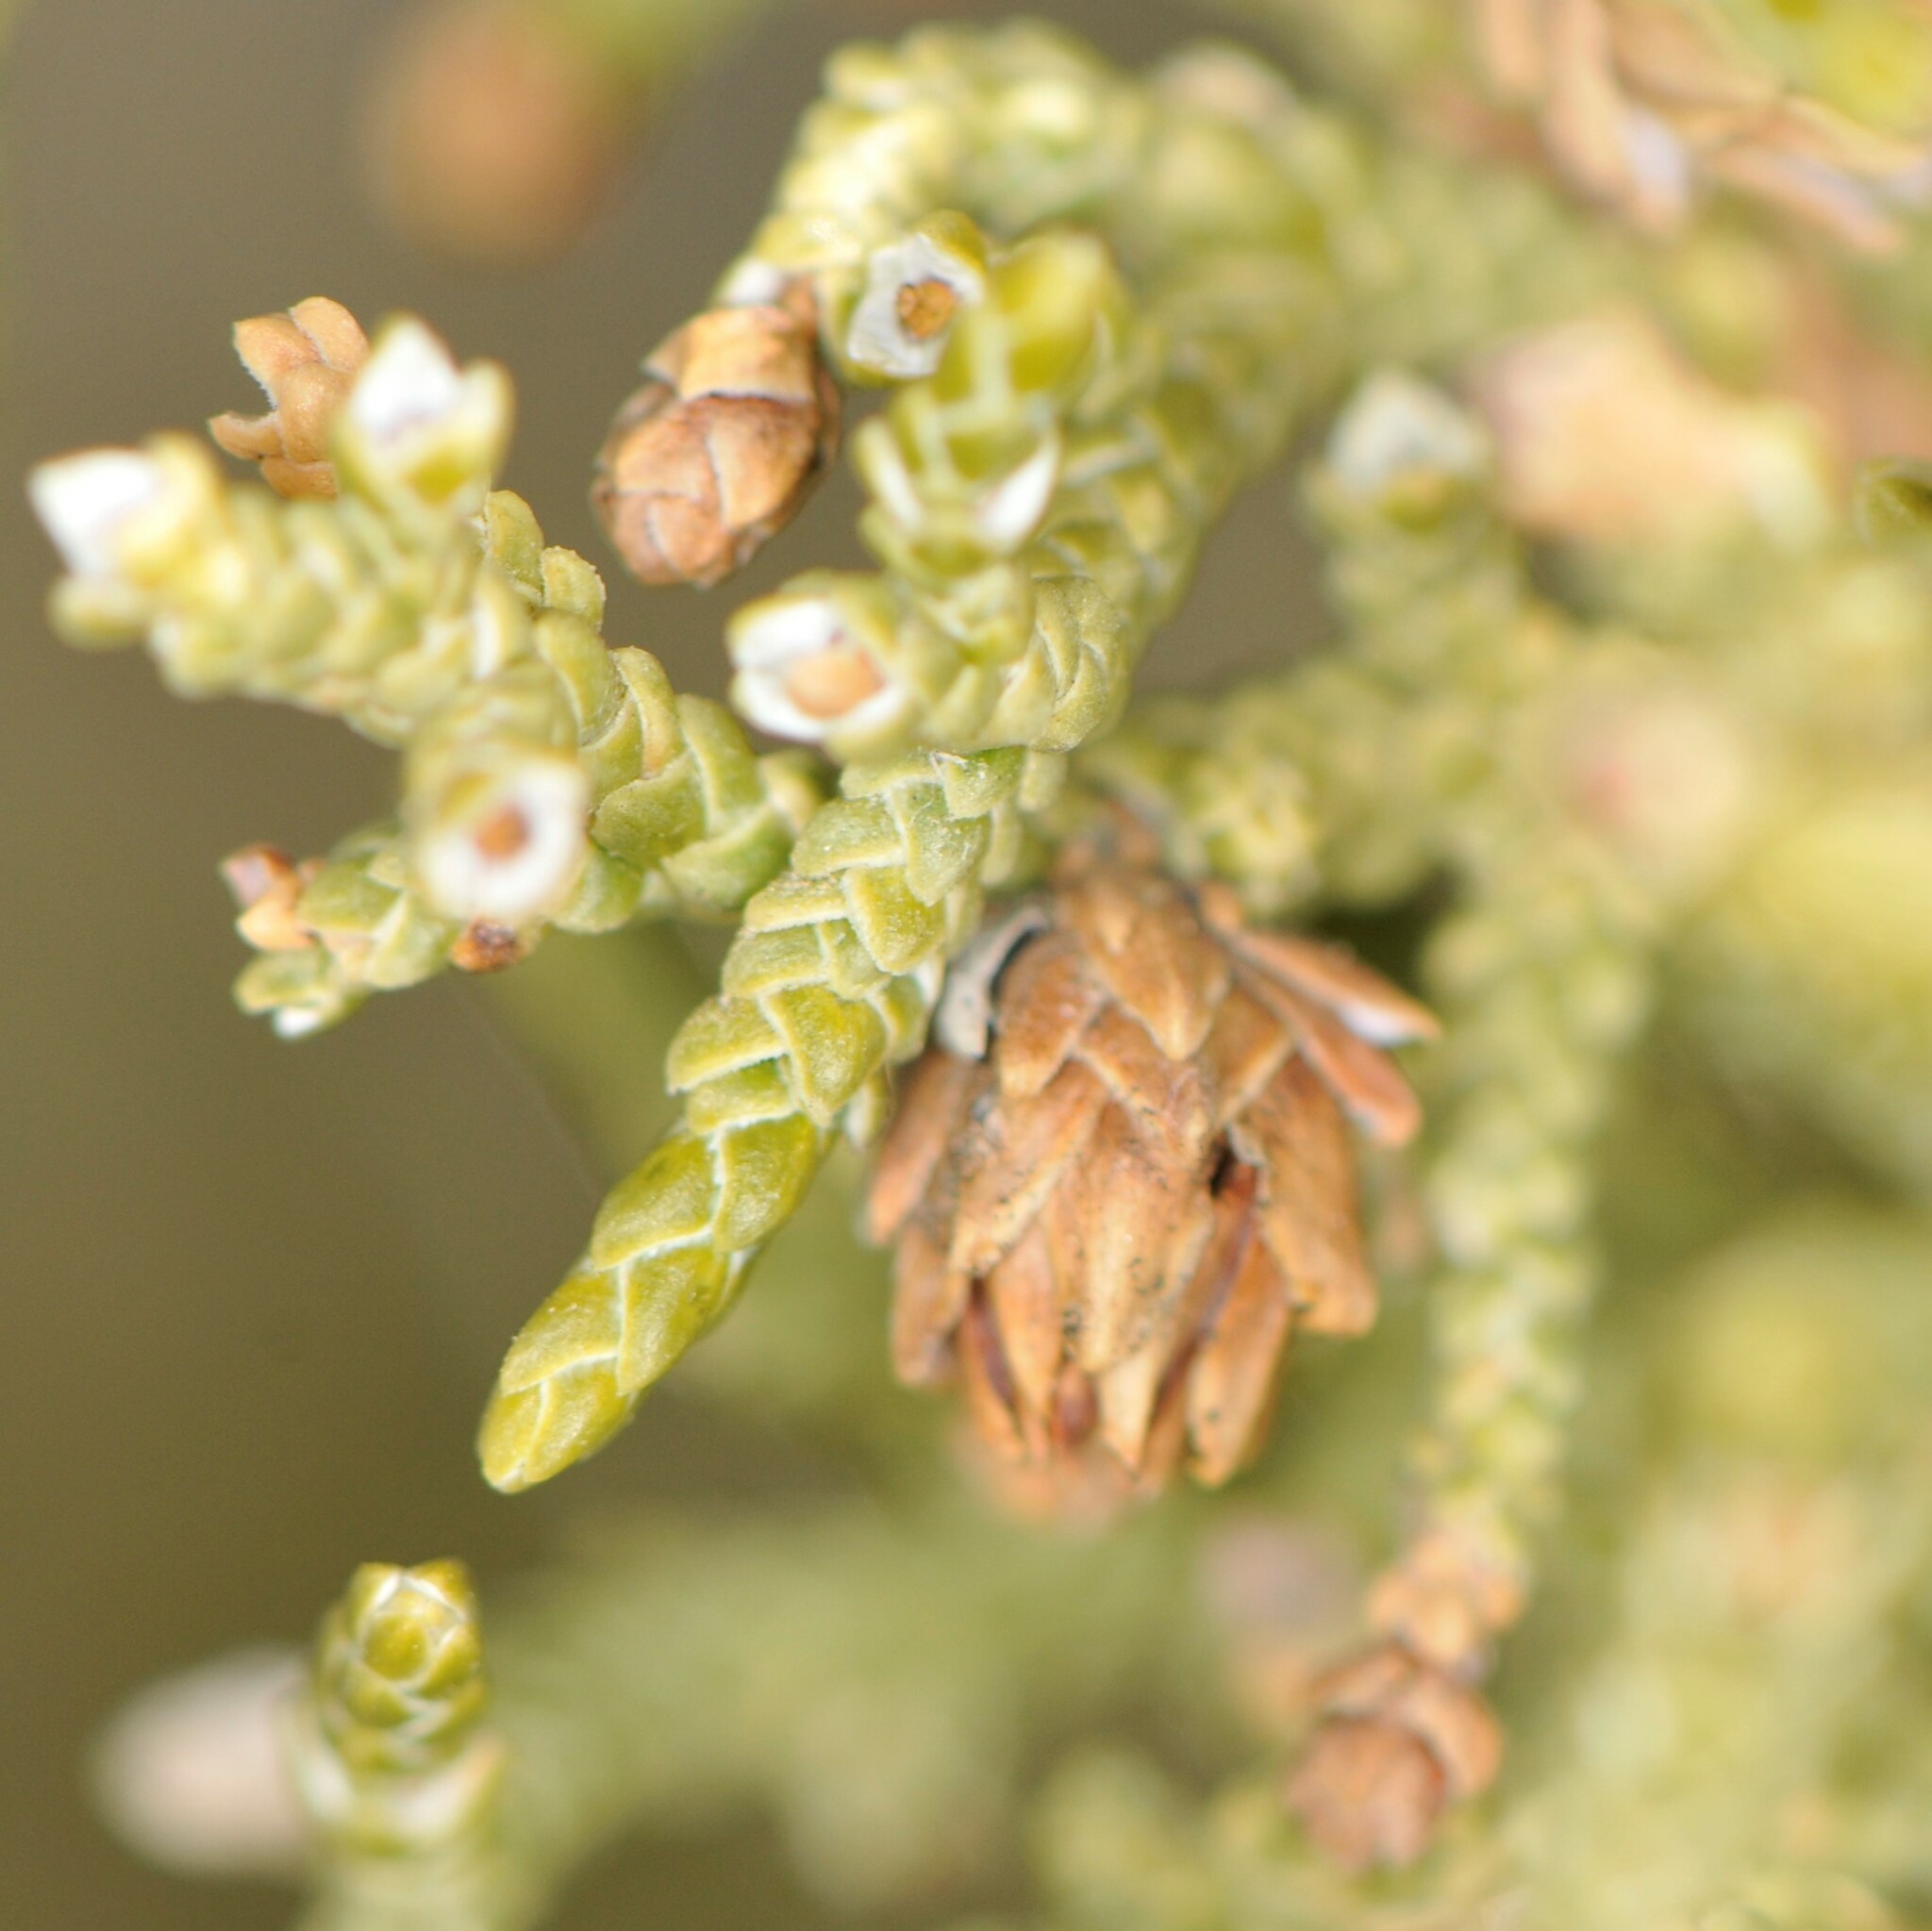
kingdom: Animalia
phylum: Arthropoda
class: Insecta
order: Diptera
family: Cecidomyiidae
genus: Walshomyia
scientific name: Walshomyia
